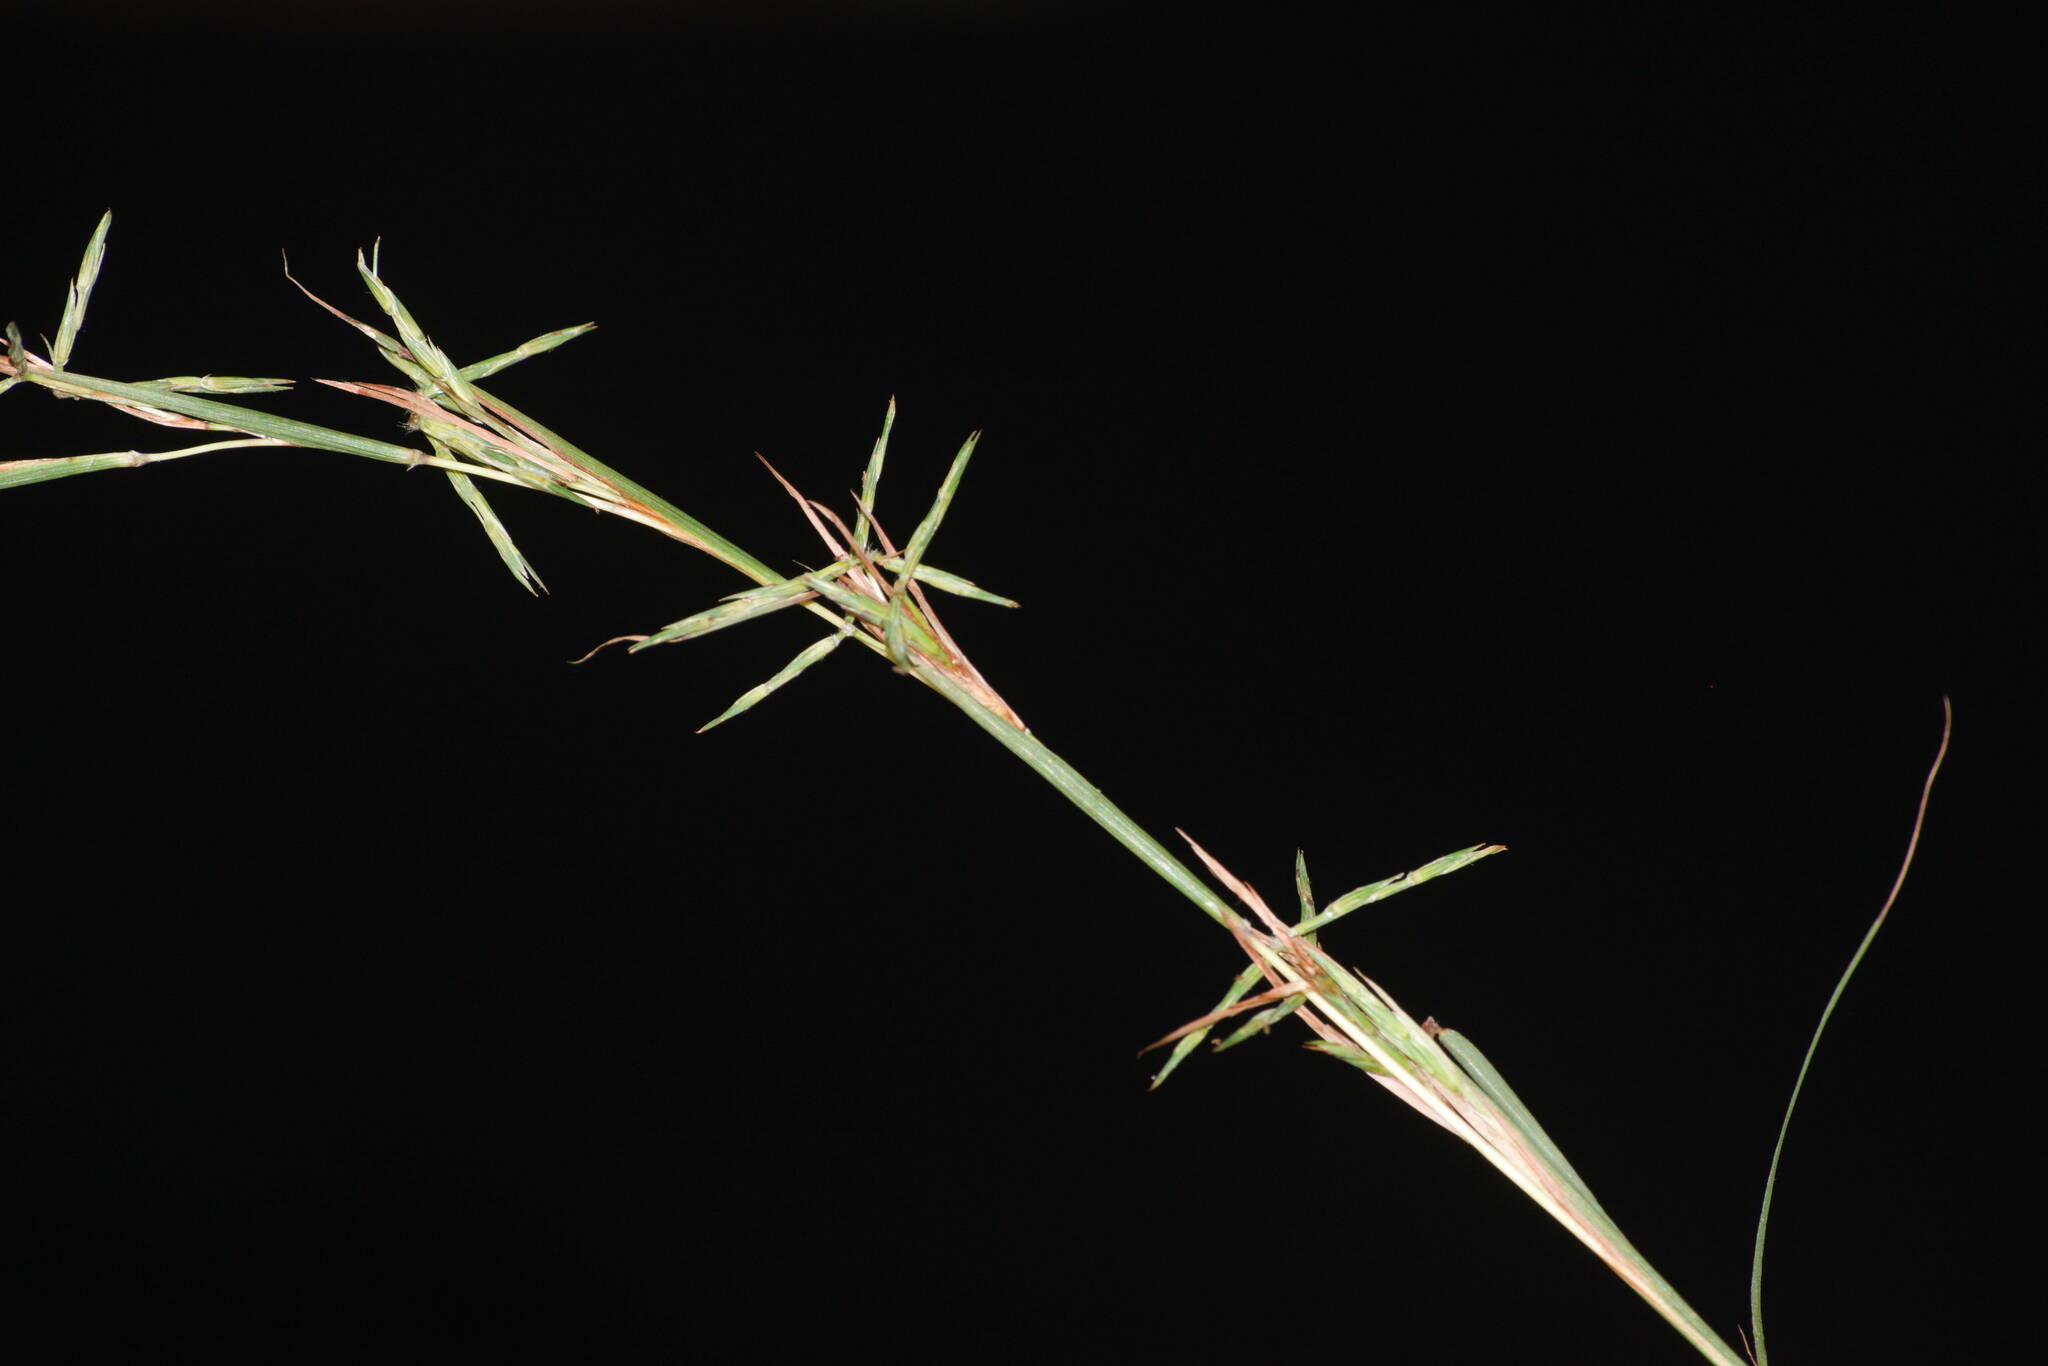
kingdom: Plantae
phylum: Tracheophyta
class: Liliopsida
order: Poales
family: Poaceae
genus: Cymbopogon
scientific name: Cymbopogon refractus
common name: Barbwire grass
